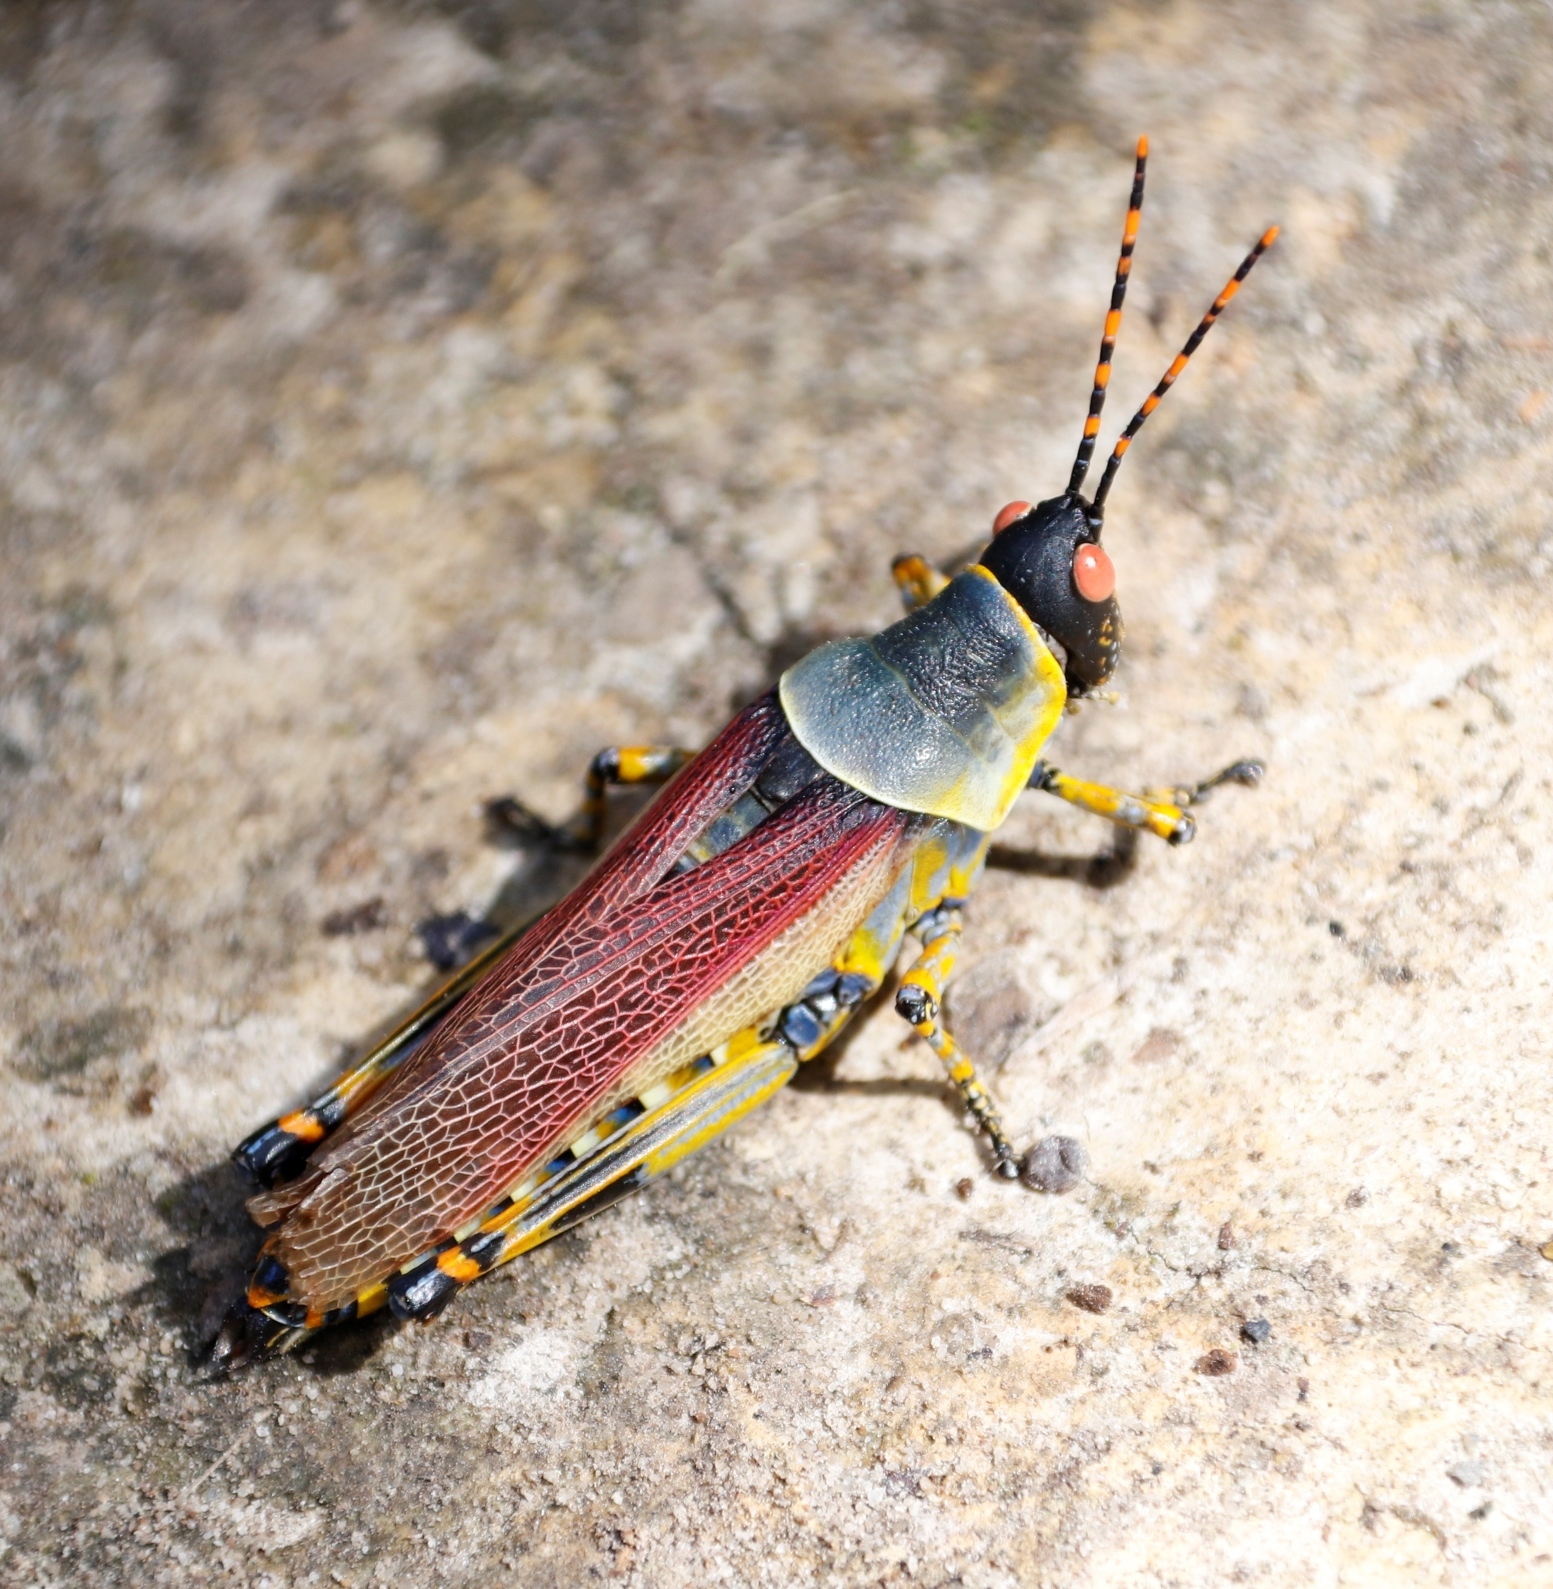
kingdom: Animalia
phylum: Arthropoda
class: Insecta
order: Orthoptera
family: Pyrgomorphidae
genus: Zonocerus
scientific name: Zonocerus elegans
